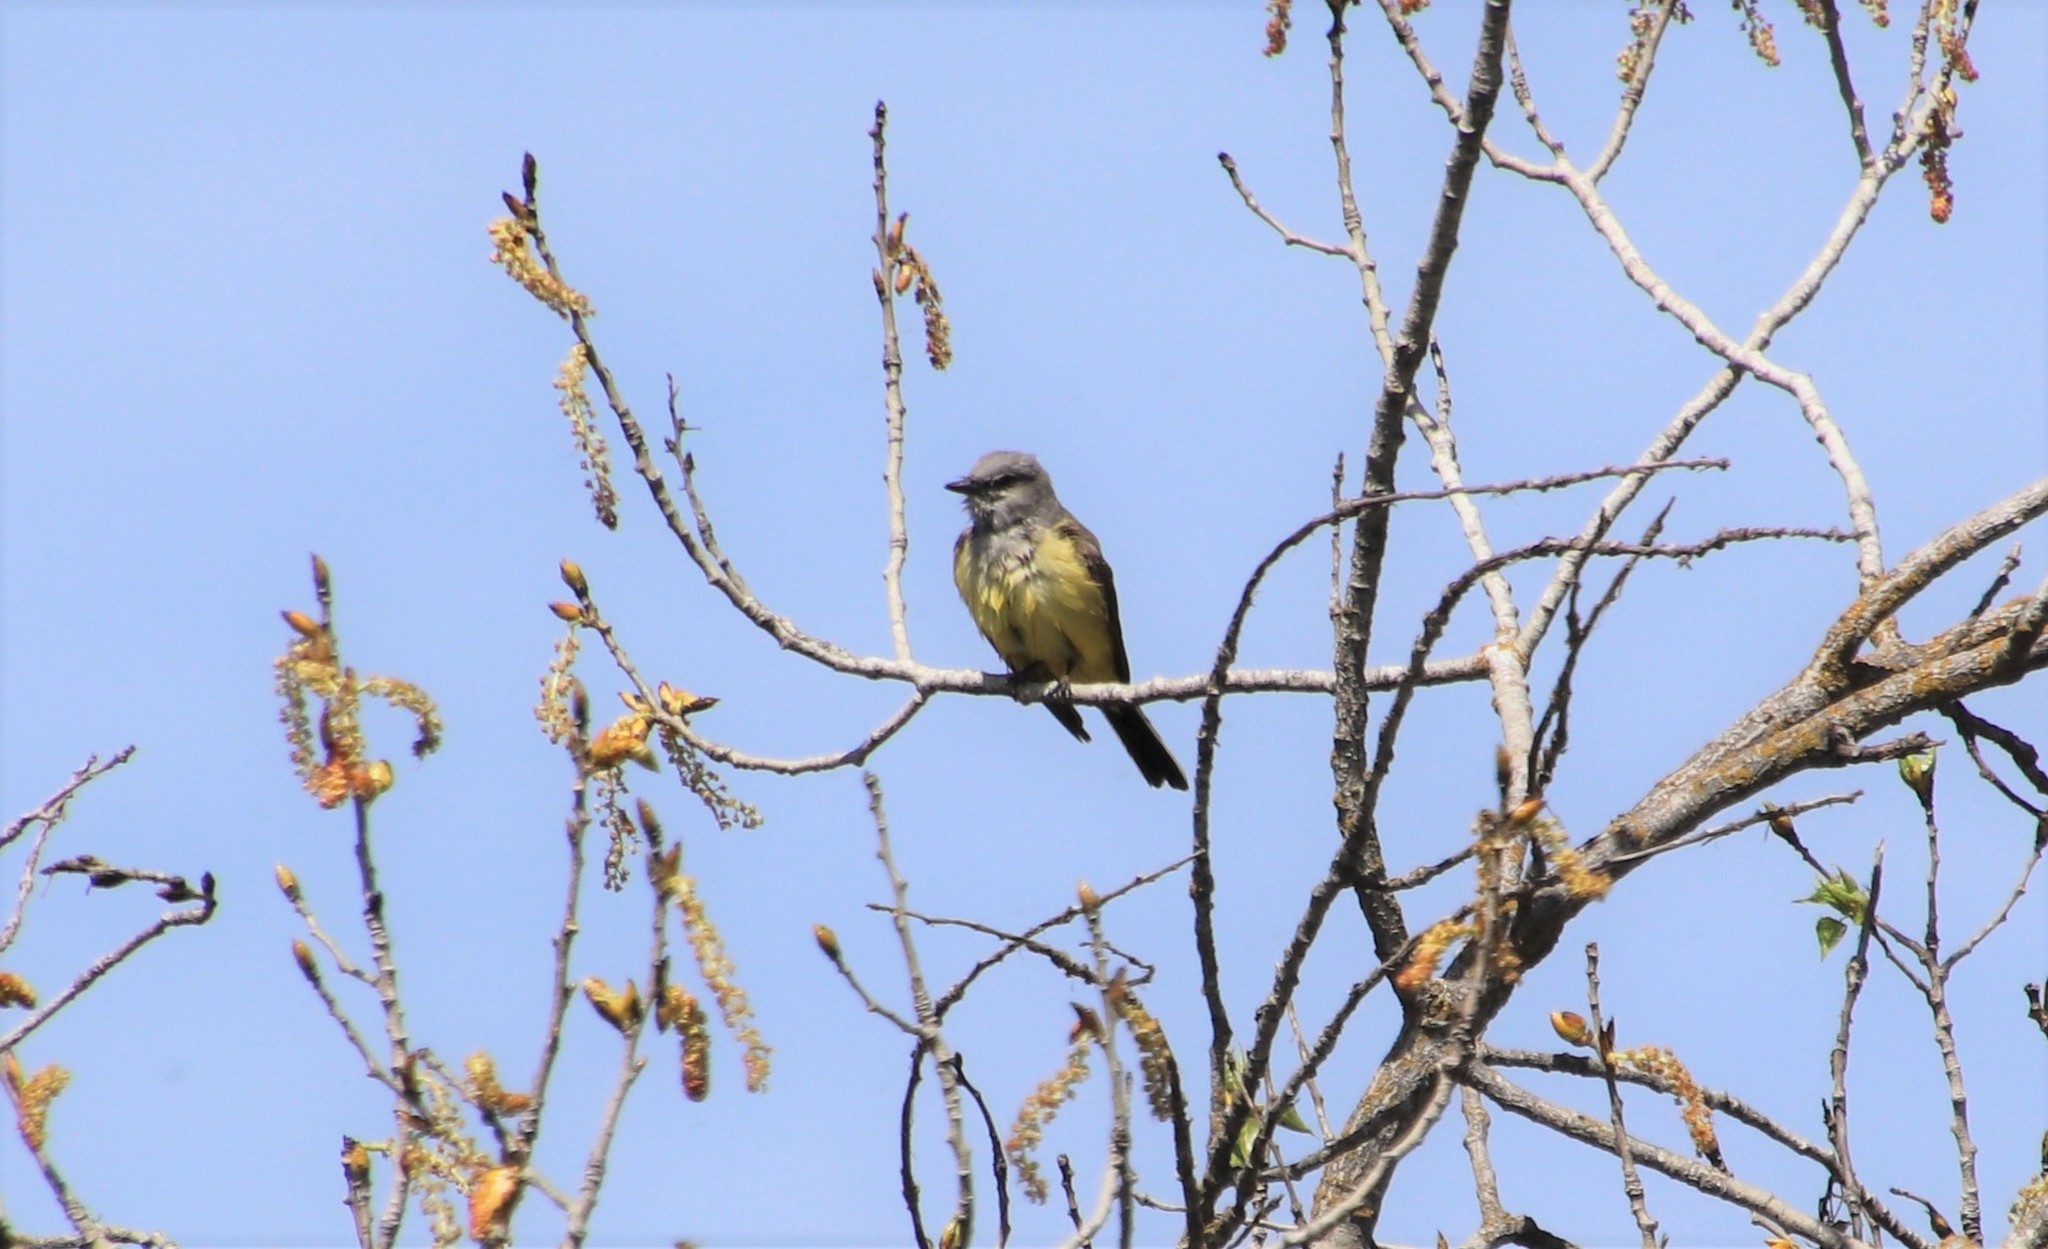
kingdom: Animalia
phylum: Chordata
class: Aves
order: Passeriformes
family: Tyrannidae
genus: Tyrannus
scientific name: Tyrannus verticalis
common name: Western kingbird
